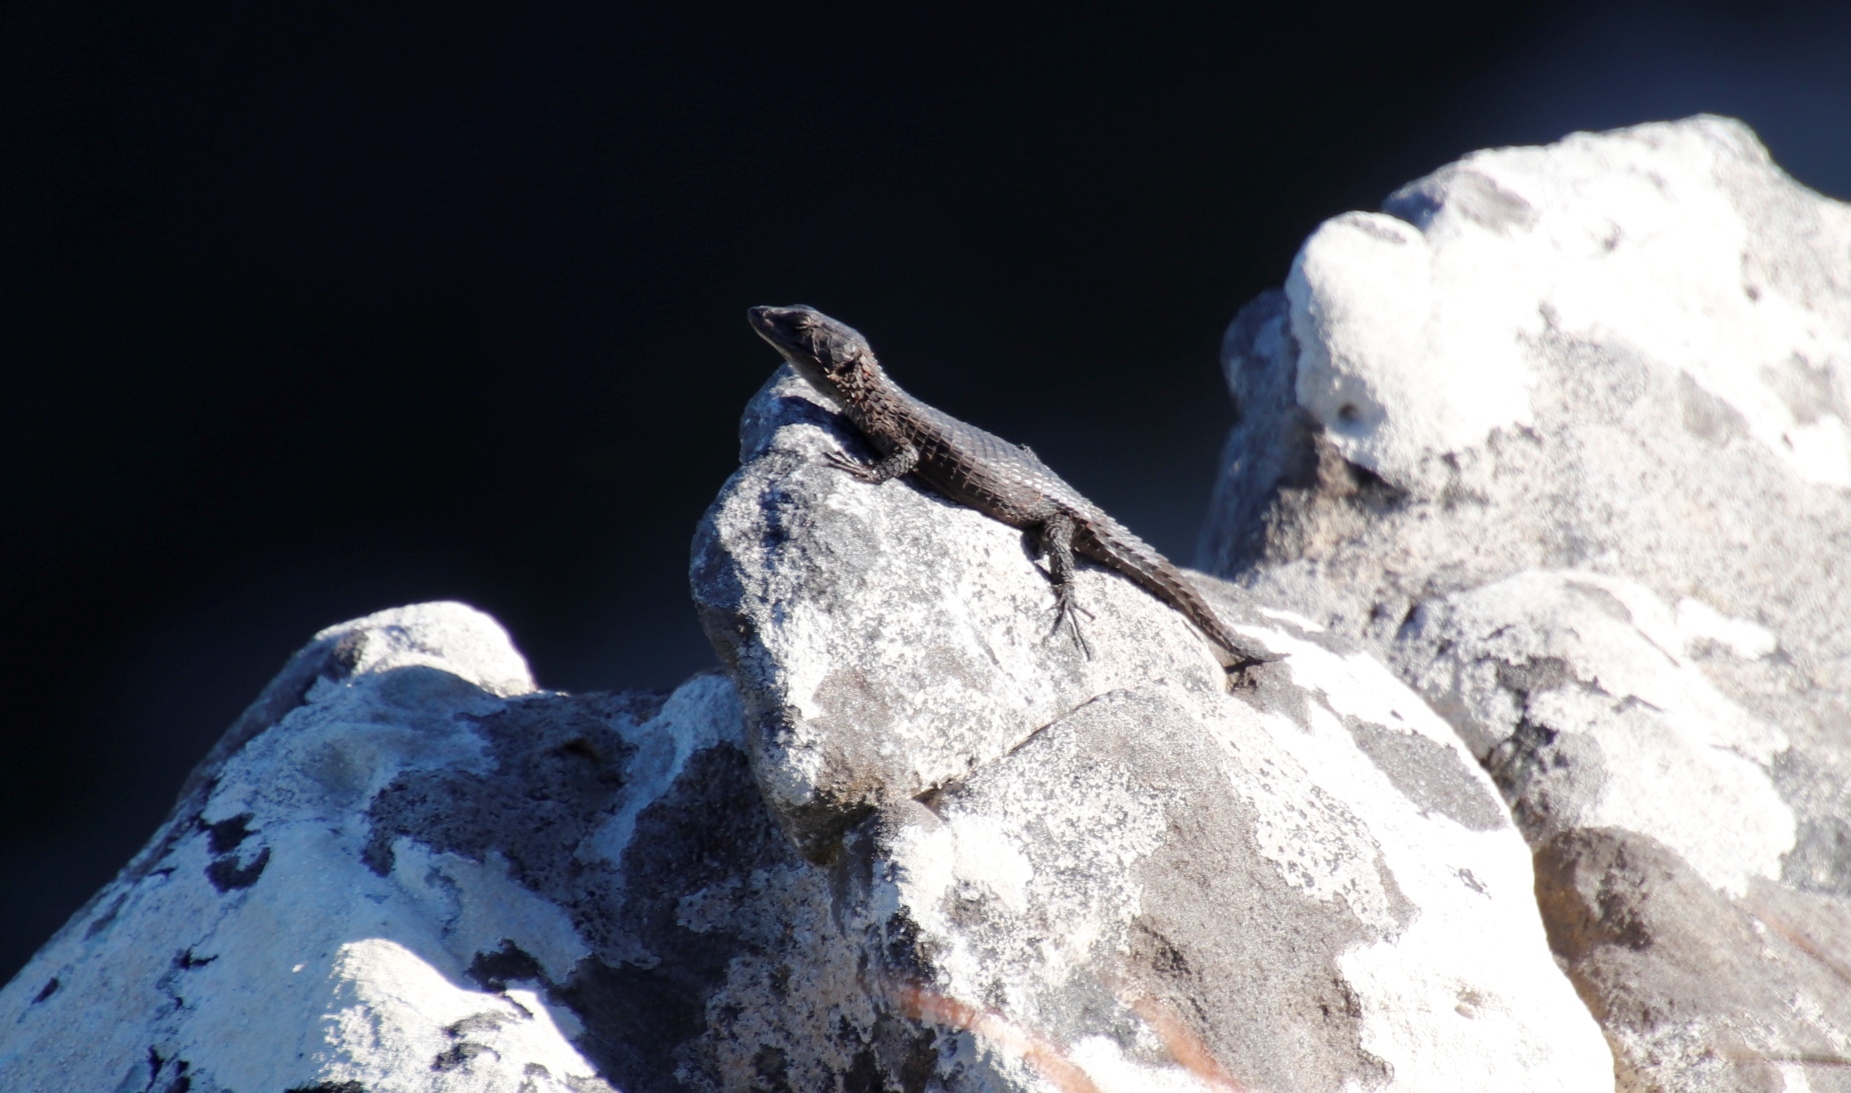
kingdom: Animalia
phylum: Chordata
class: Squamata
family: Cordylidae
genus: Cordylus
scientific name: Cordylus niger
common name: Black girdled lizard
